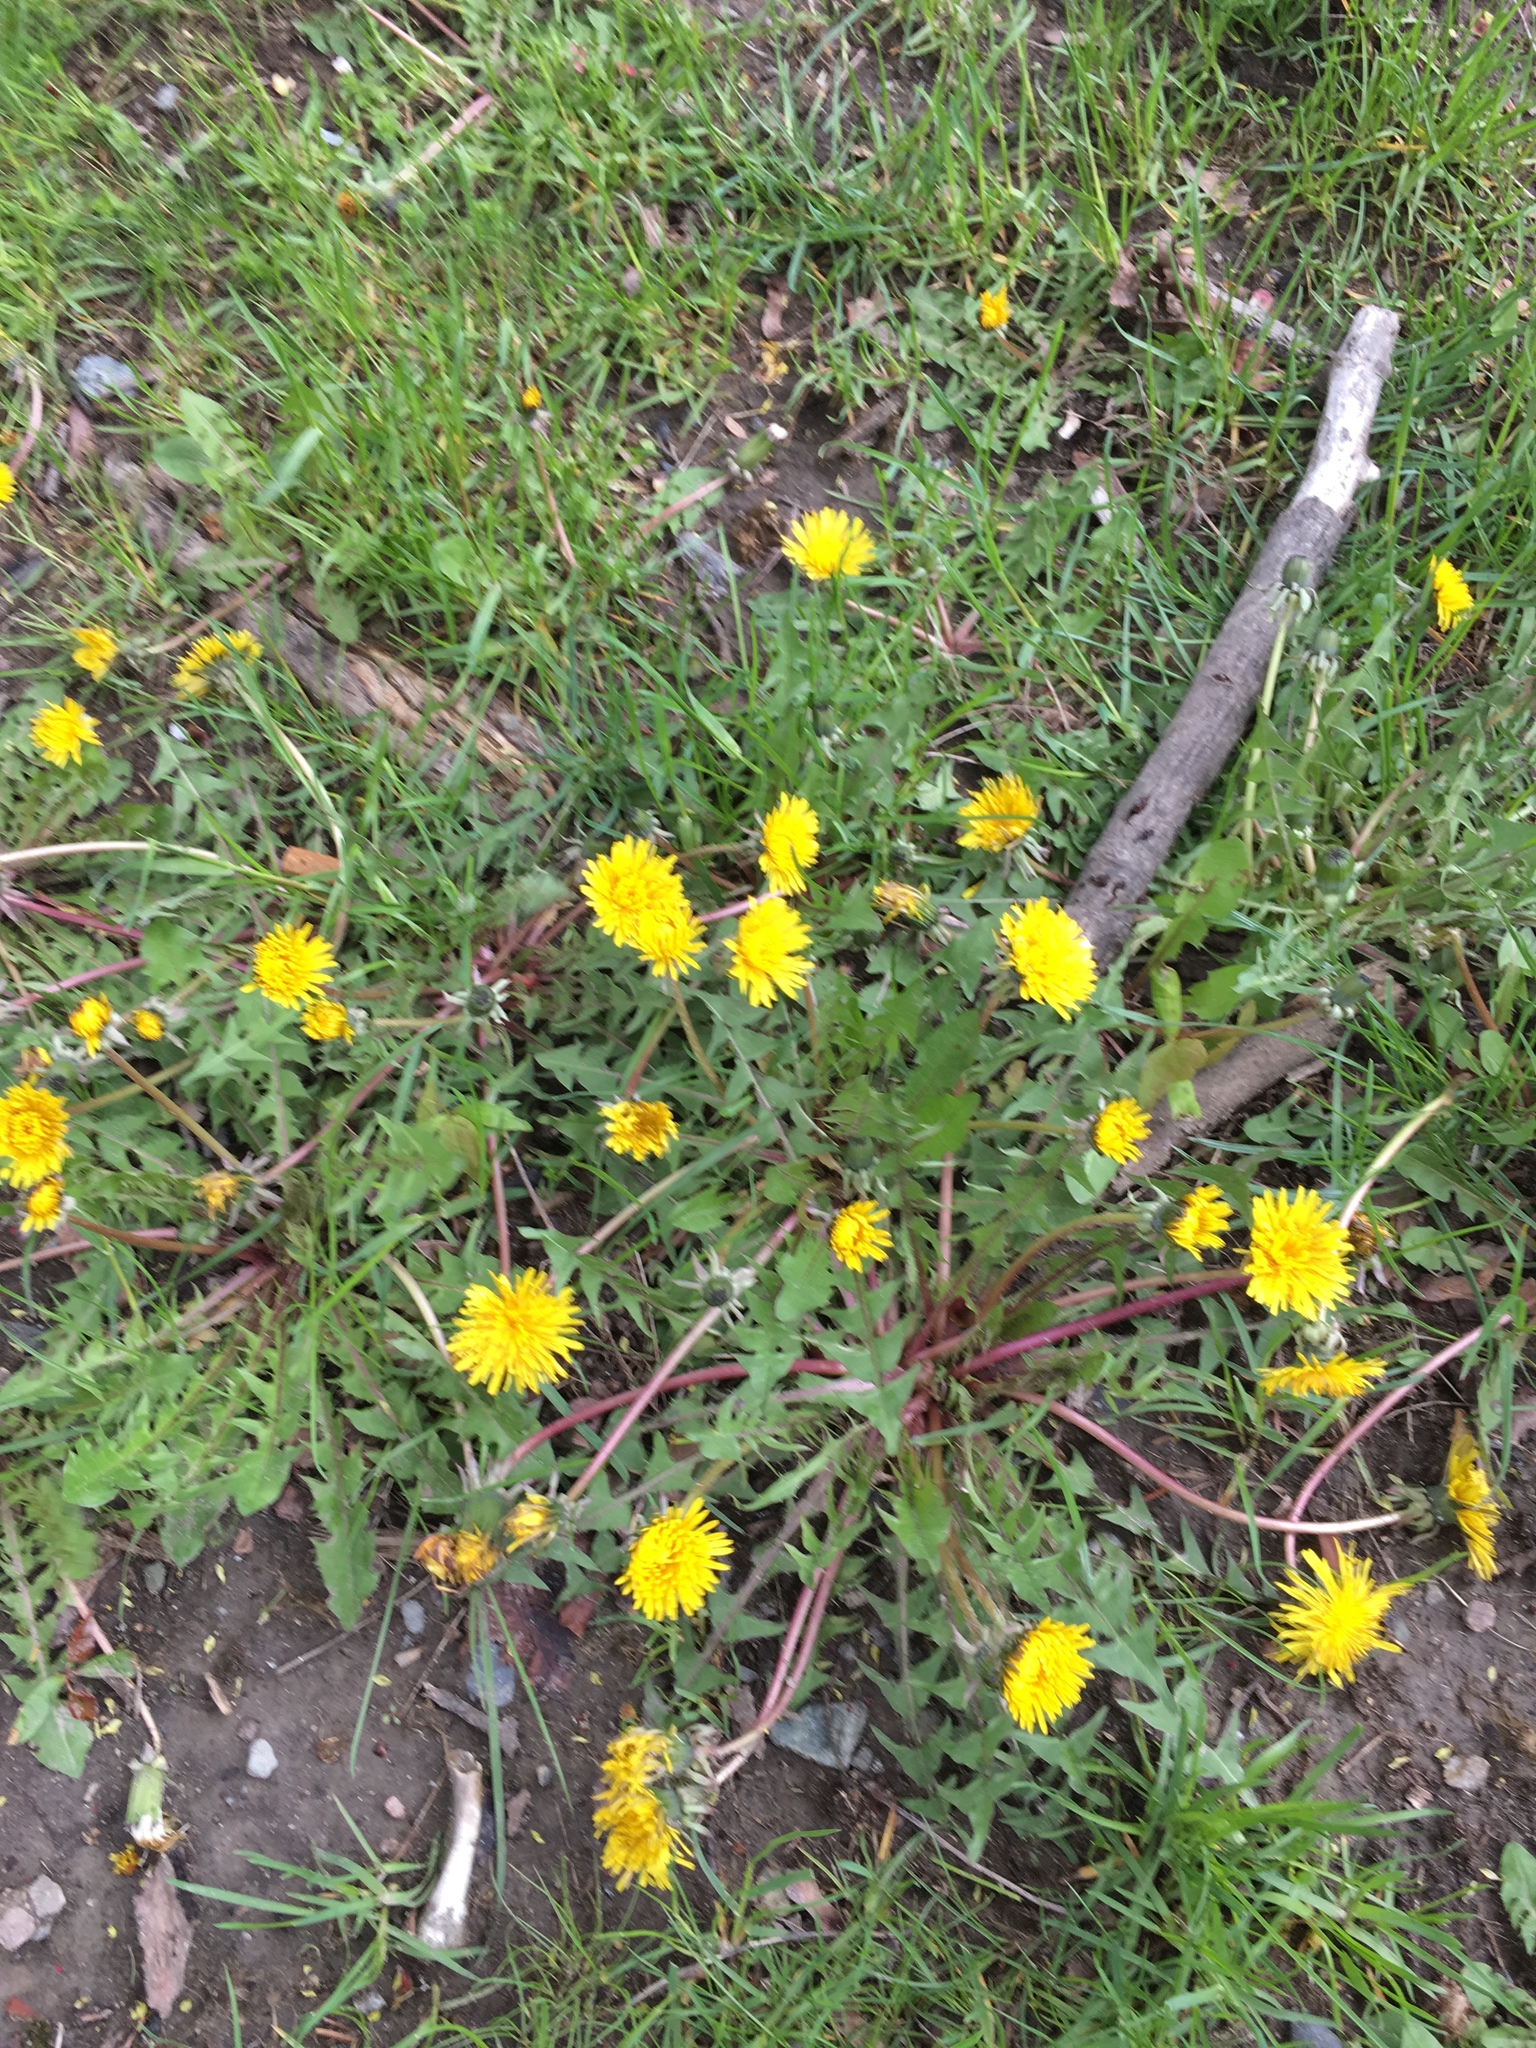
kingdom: Plantae
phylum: Tracheophyta
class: Magnoliopsida
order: Asterales
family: Asteraceae
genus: Taraxacum
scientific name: Taraxacum officinale
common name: Common dandelion
